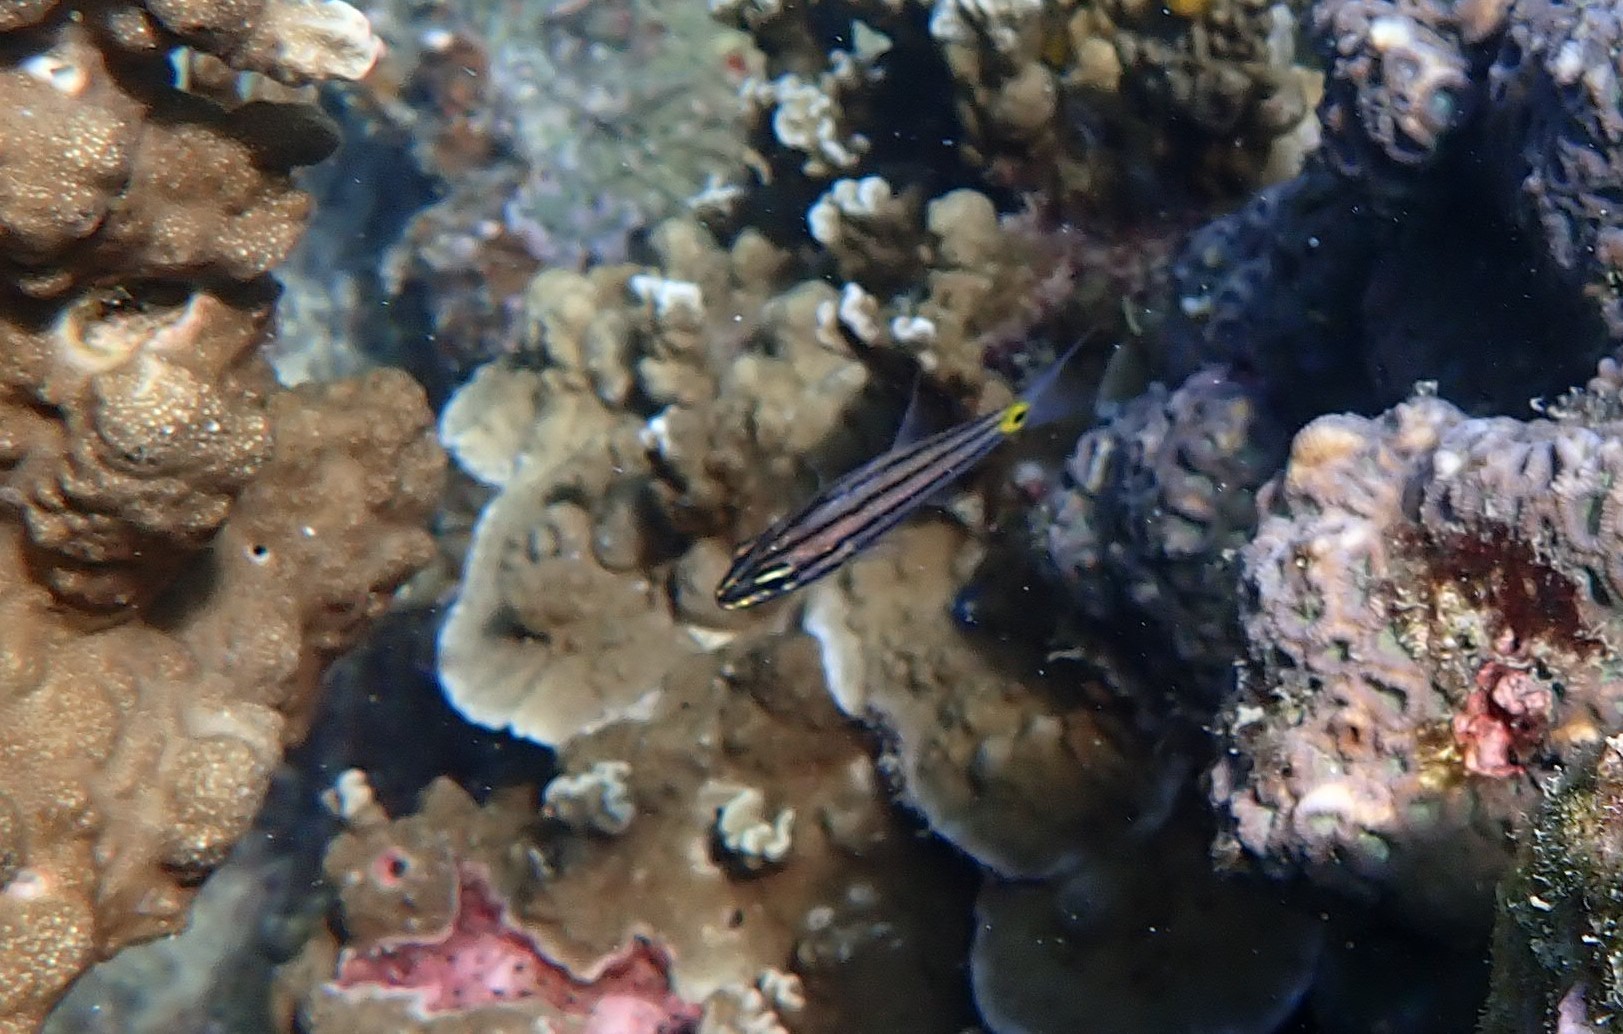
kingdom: Animalia
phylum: Chordata
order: Perciformes
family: Apogonidae
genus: Cheilodipterus
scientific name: Cheilodipterus quinquelineatus
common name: Five-lined cardinalfish
